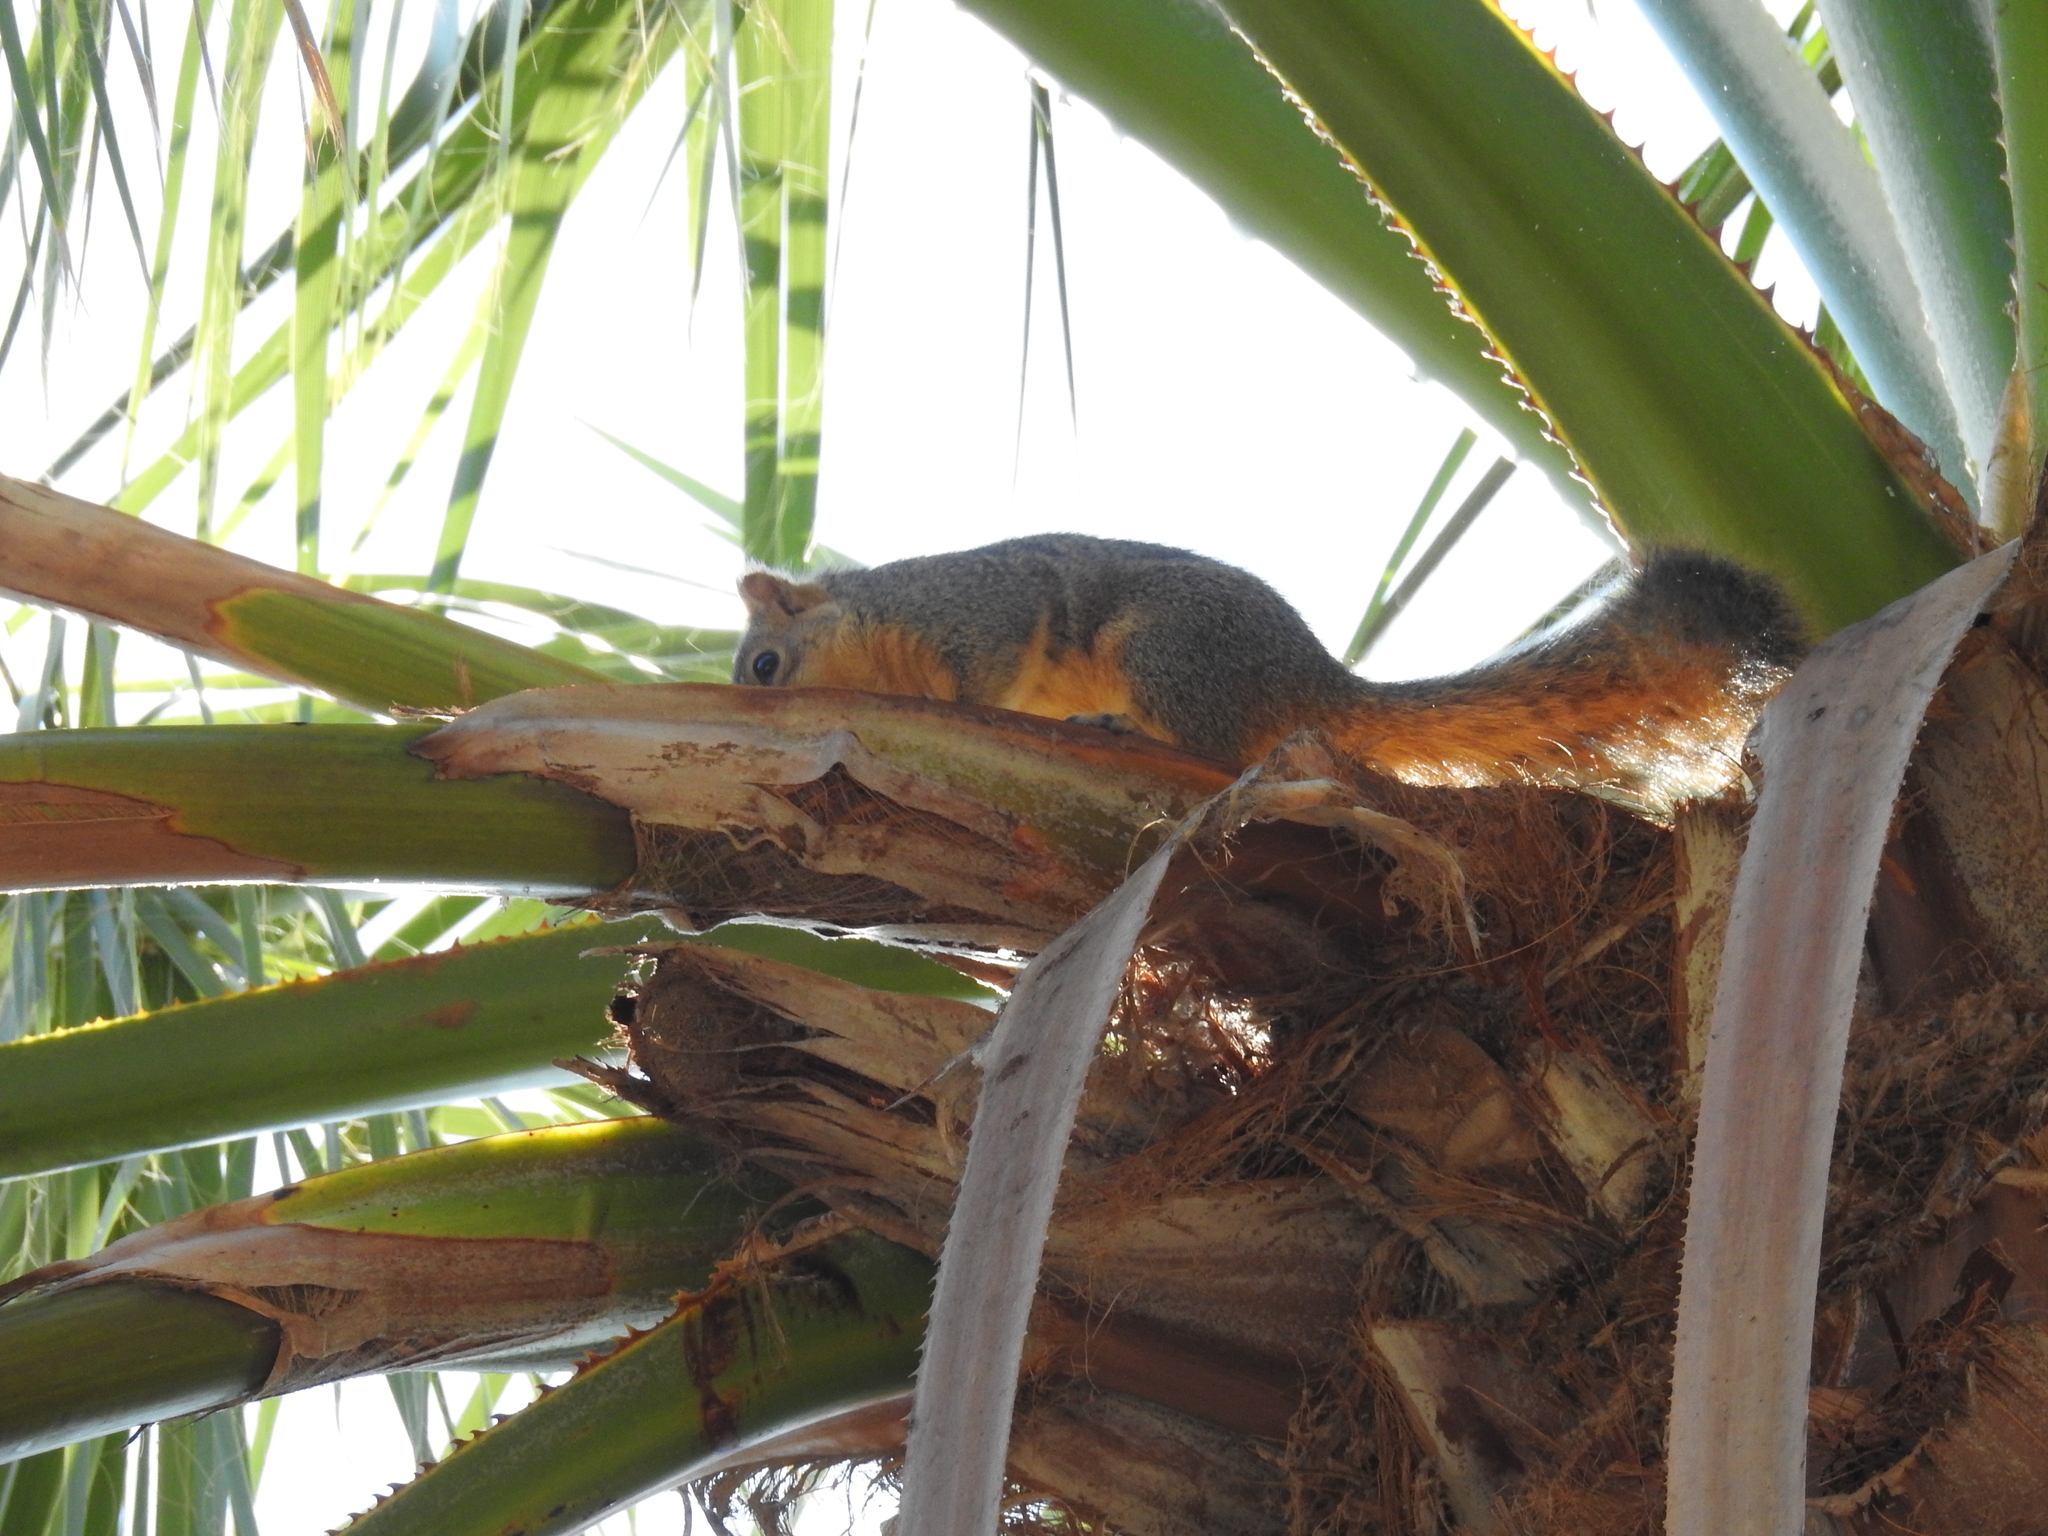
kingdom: Animalia
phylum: Chordata
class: Mammalia
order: Rodentia
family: Sciuridae
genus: Sciurus
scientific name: Sciurus niger
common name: Fox squirrel
